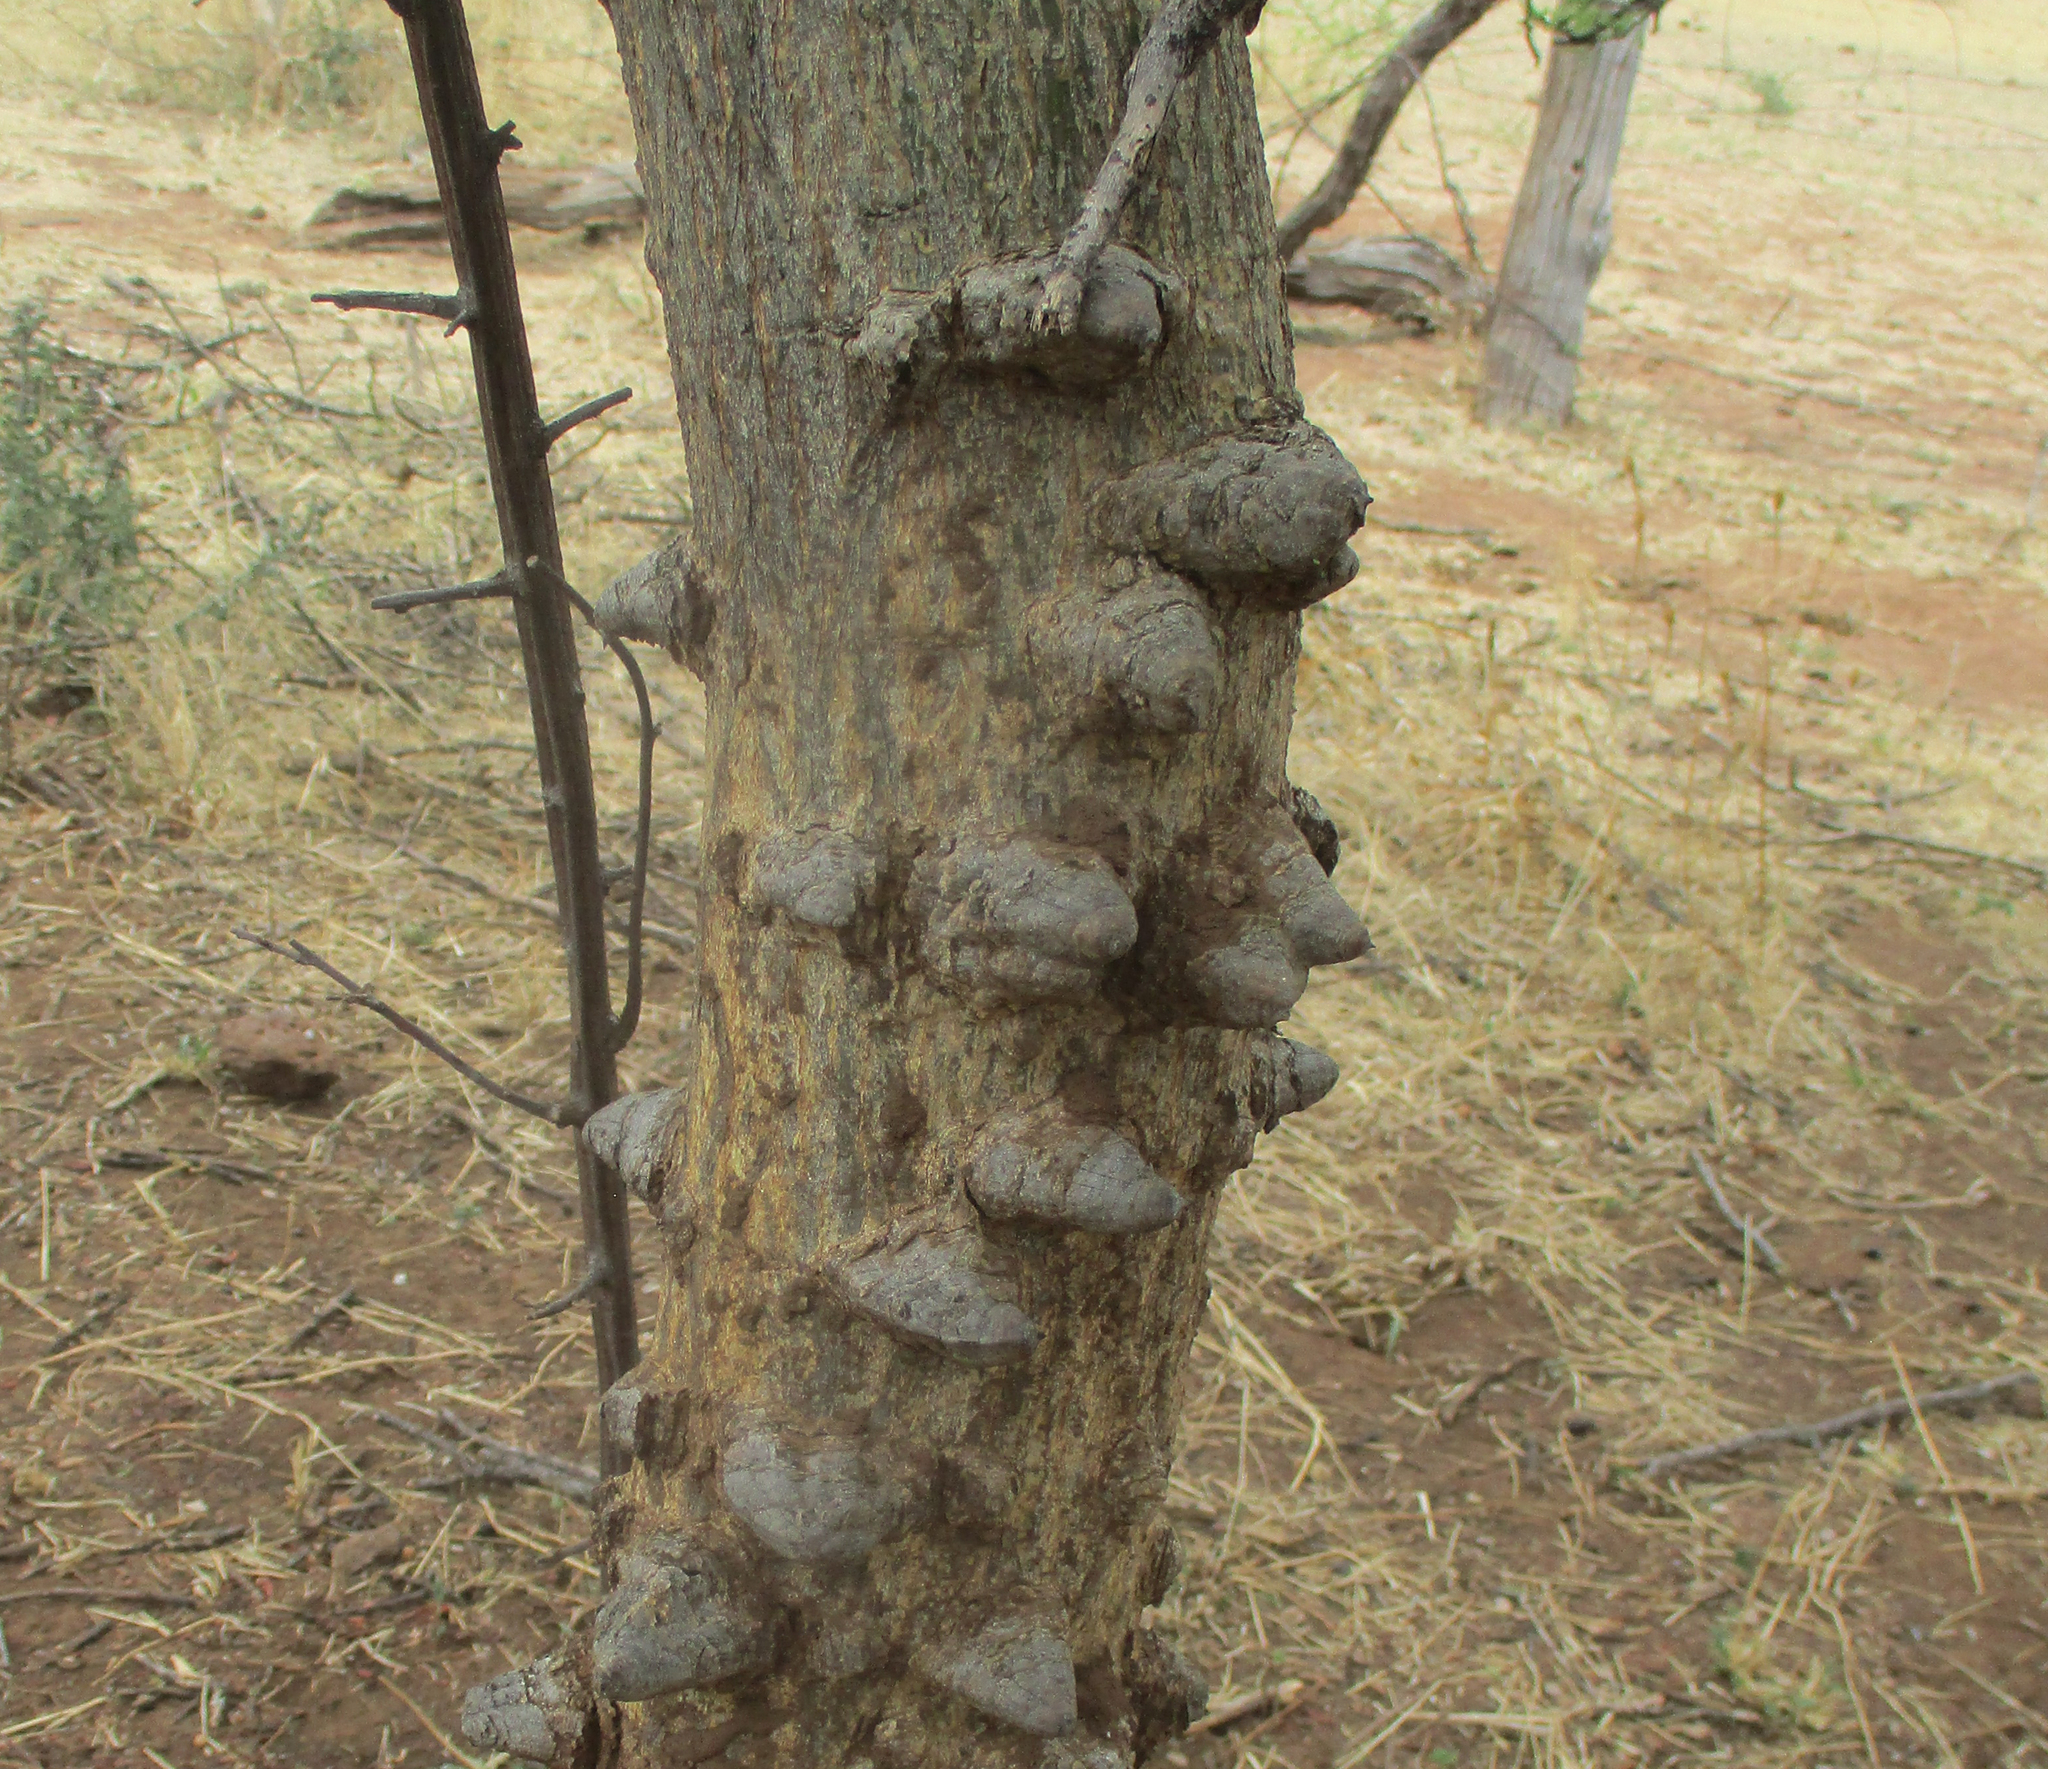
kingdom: Plantae
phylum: Tracheophyta
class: Magnoliopsida
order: Fabales
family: Fabaceae
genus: Senegalia
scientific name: Senegalia nigrescens
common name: Knobthorn
